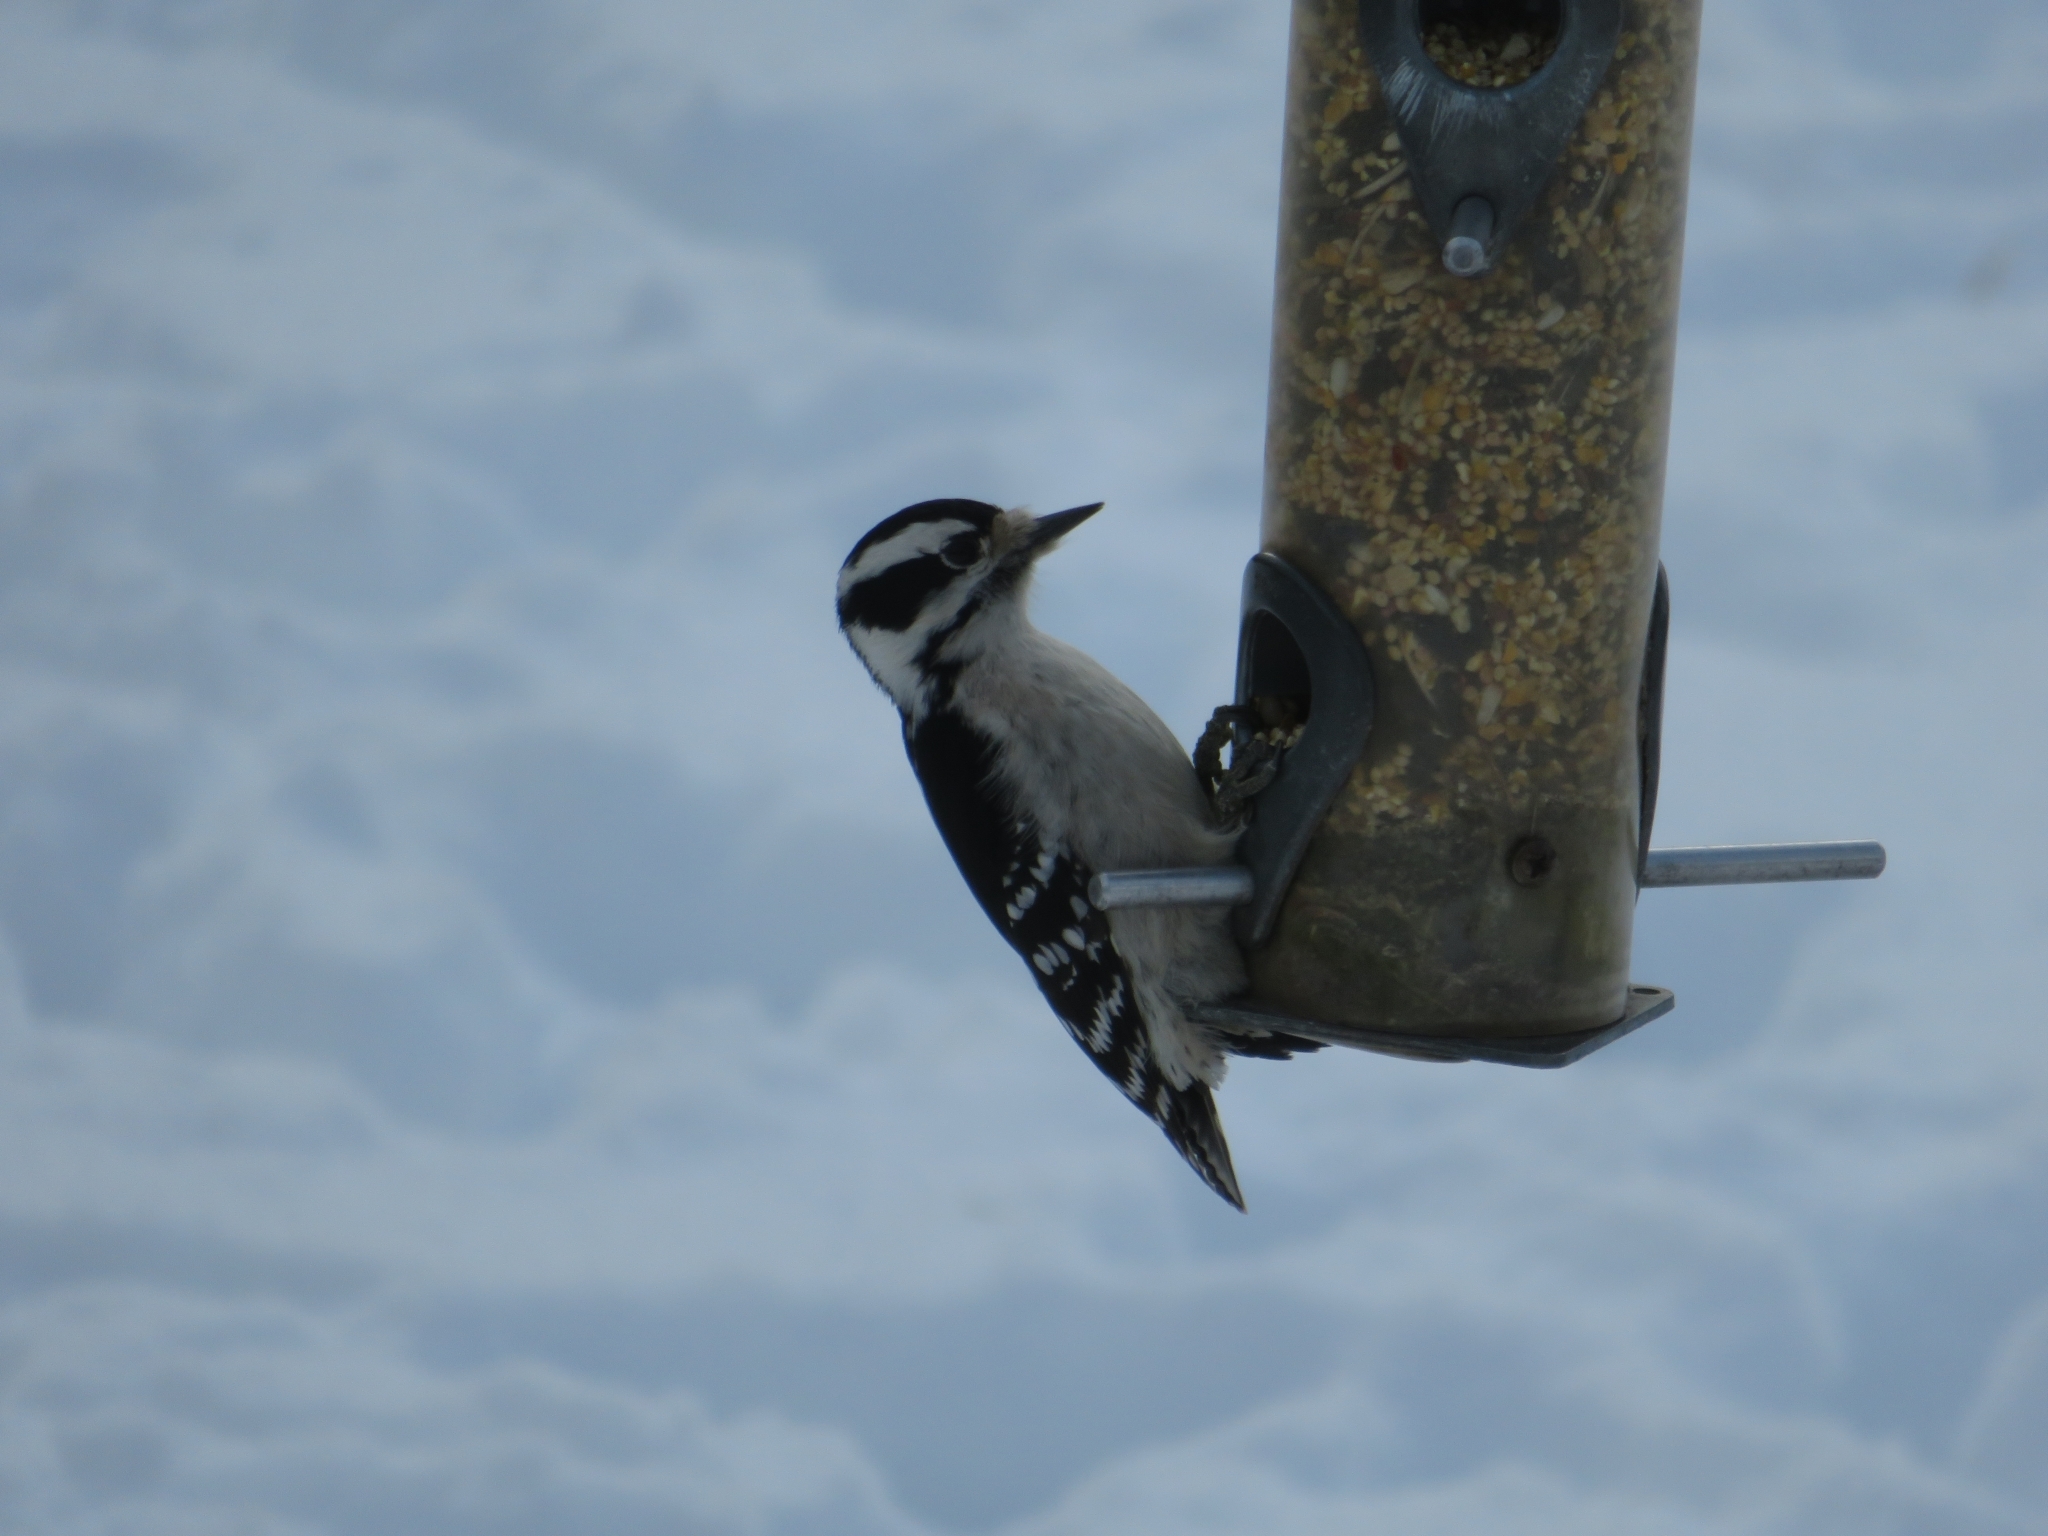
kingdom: Animalia
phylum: Chordata
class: Aves
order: Piciformes
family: Picidae
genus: Dryobates
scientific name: Dryobates pubescens
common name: Downy woodpecker
